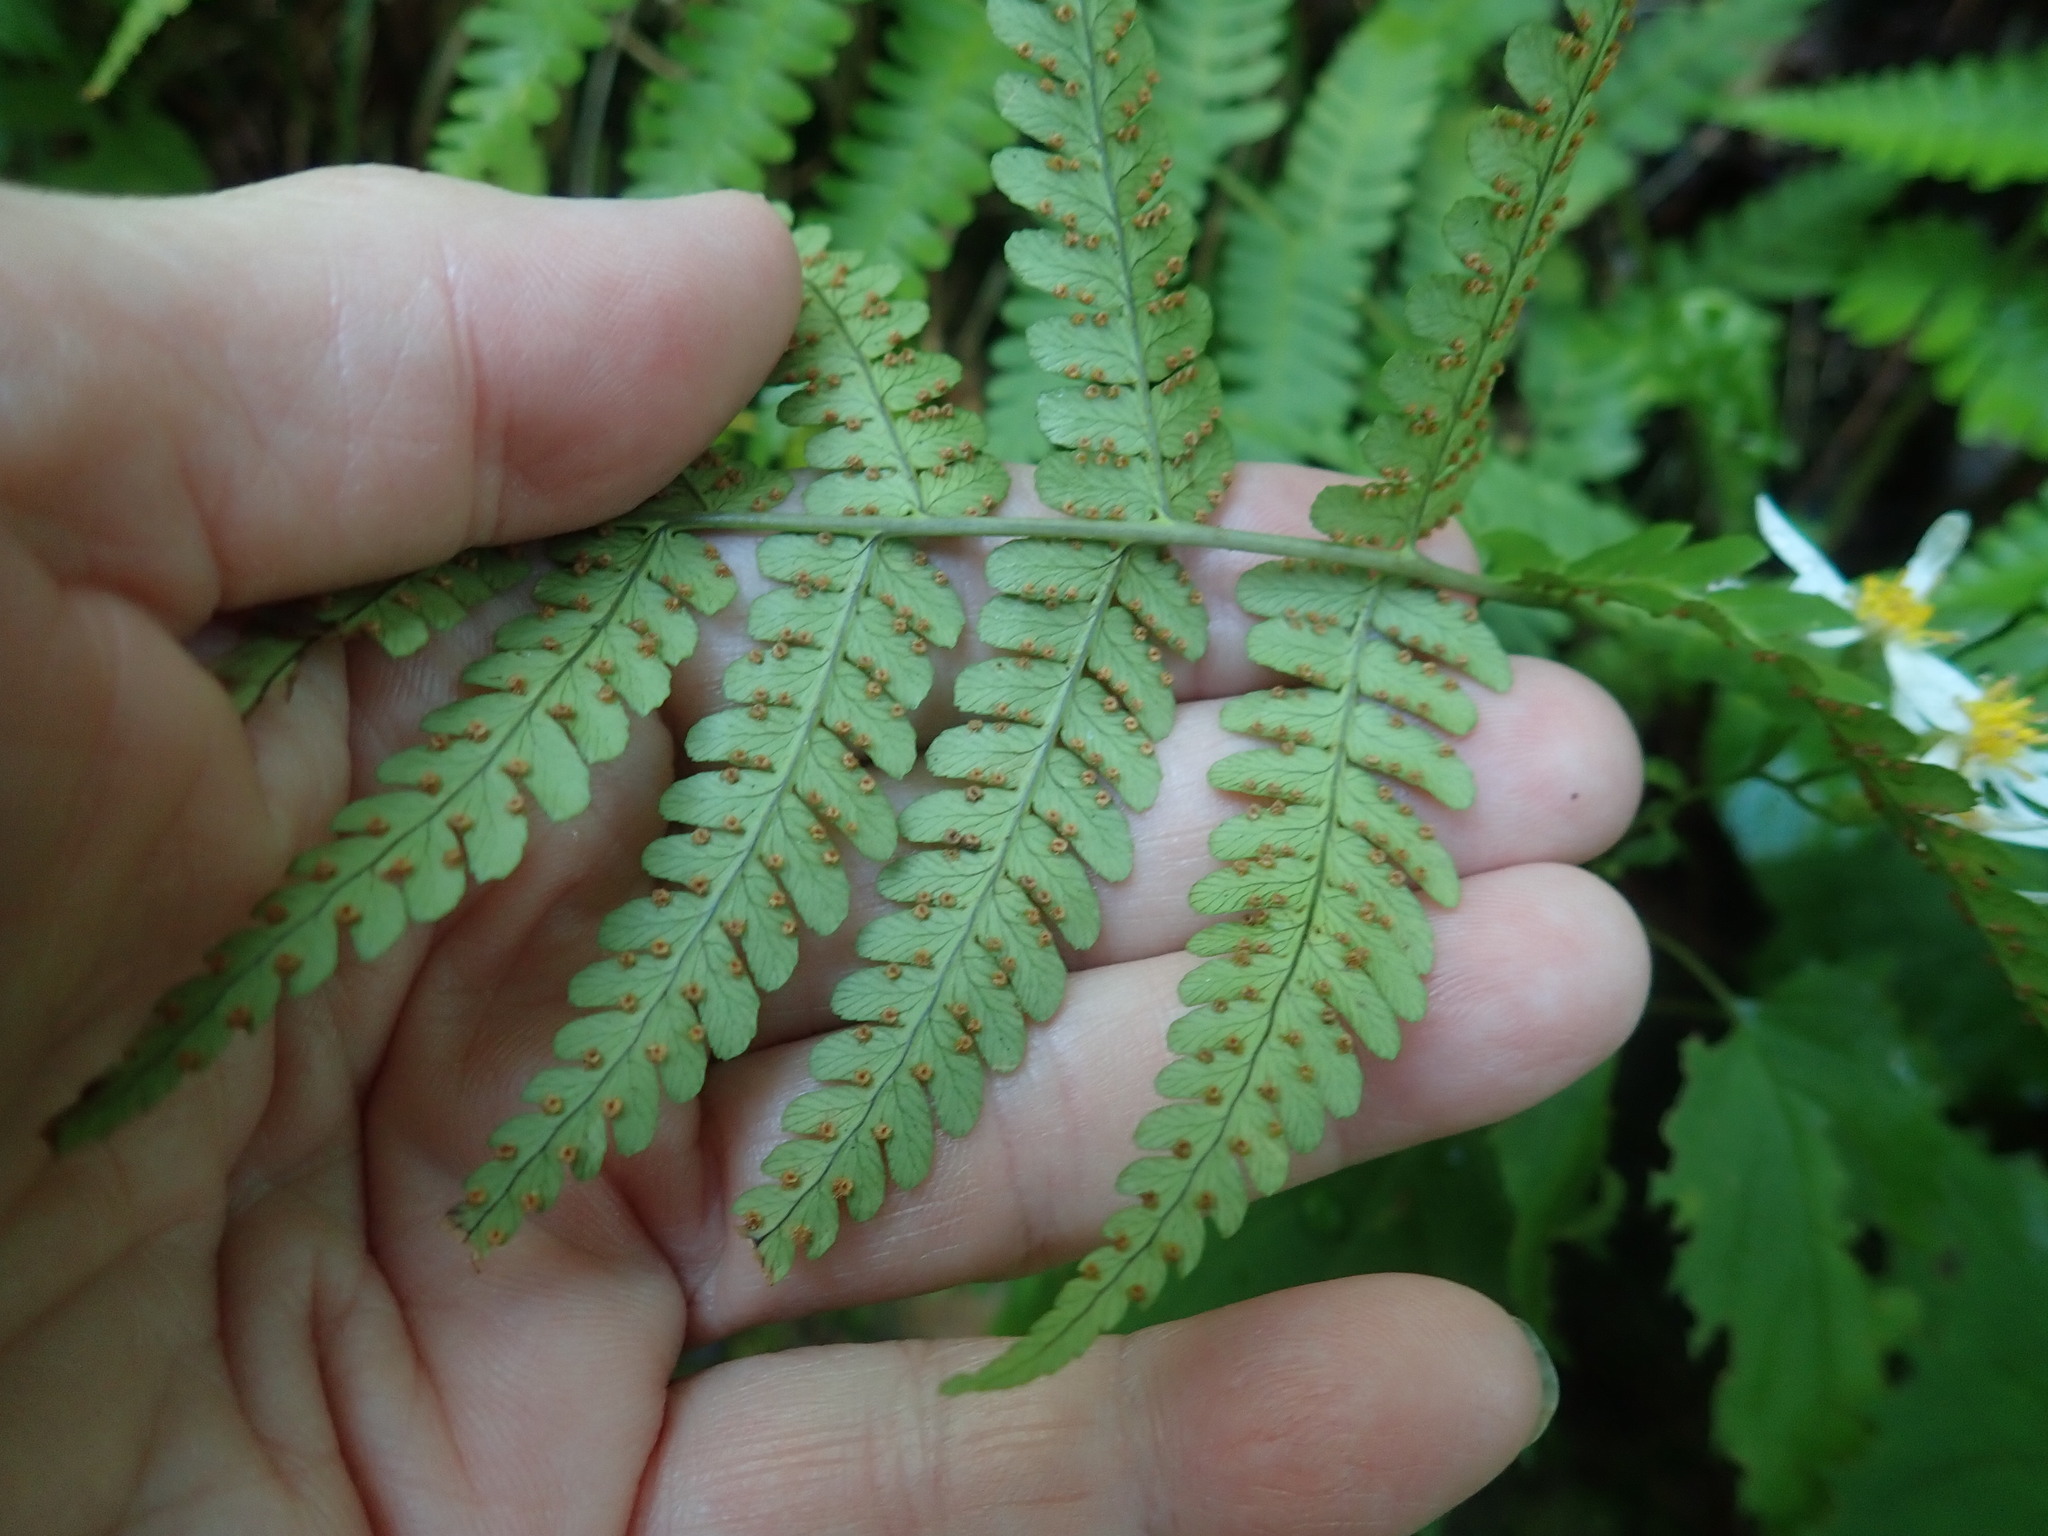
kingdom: Plantae
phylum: Tracheophyta
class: Polypodiopsida
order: Polypodiales
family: Dryopteridaceae
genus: Dryopteris
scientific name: Dryopteris marginalis
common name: Marginal wood fern
